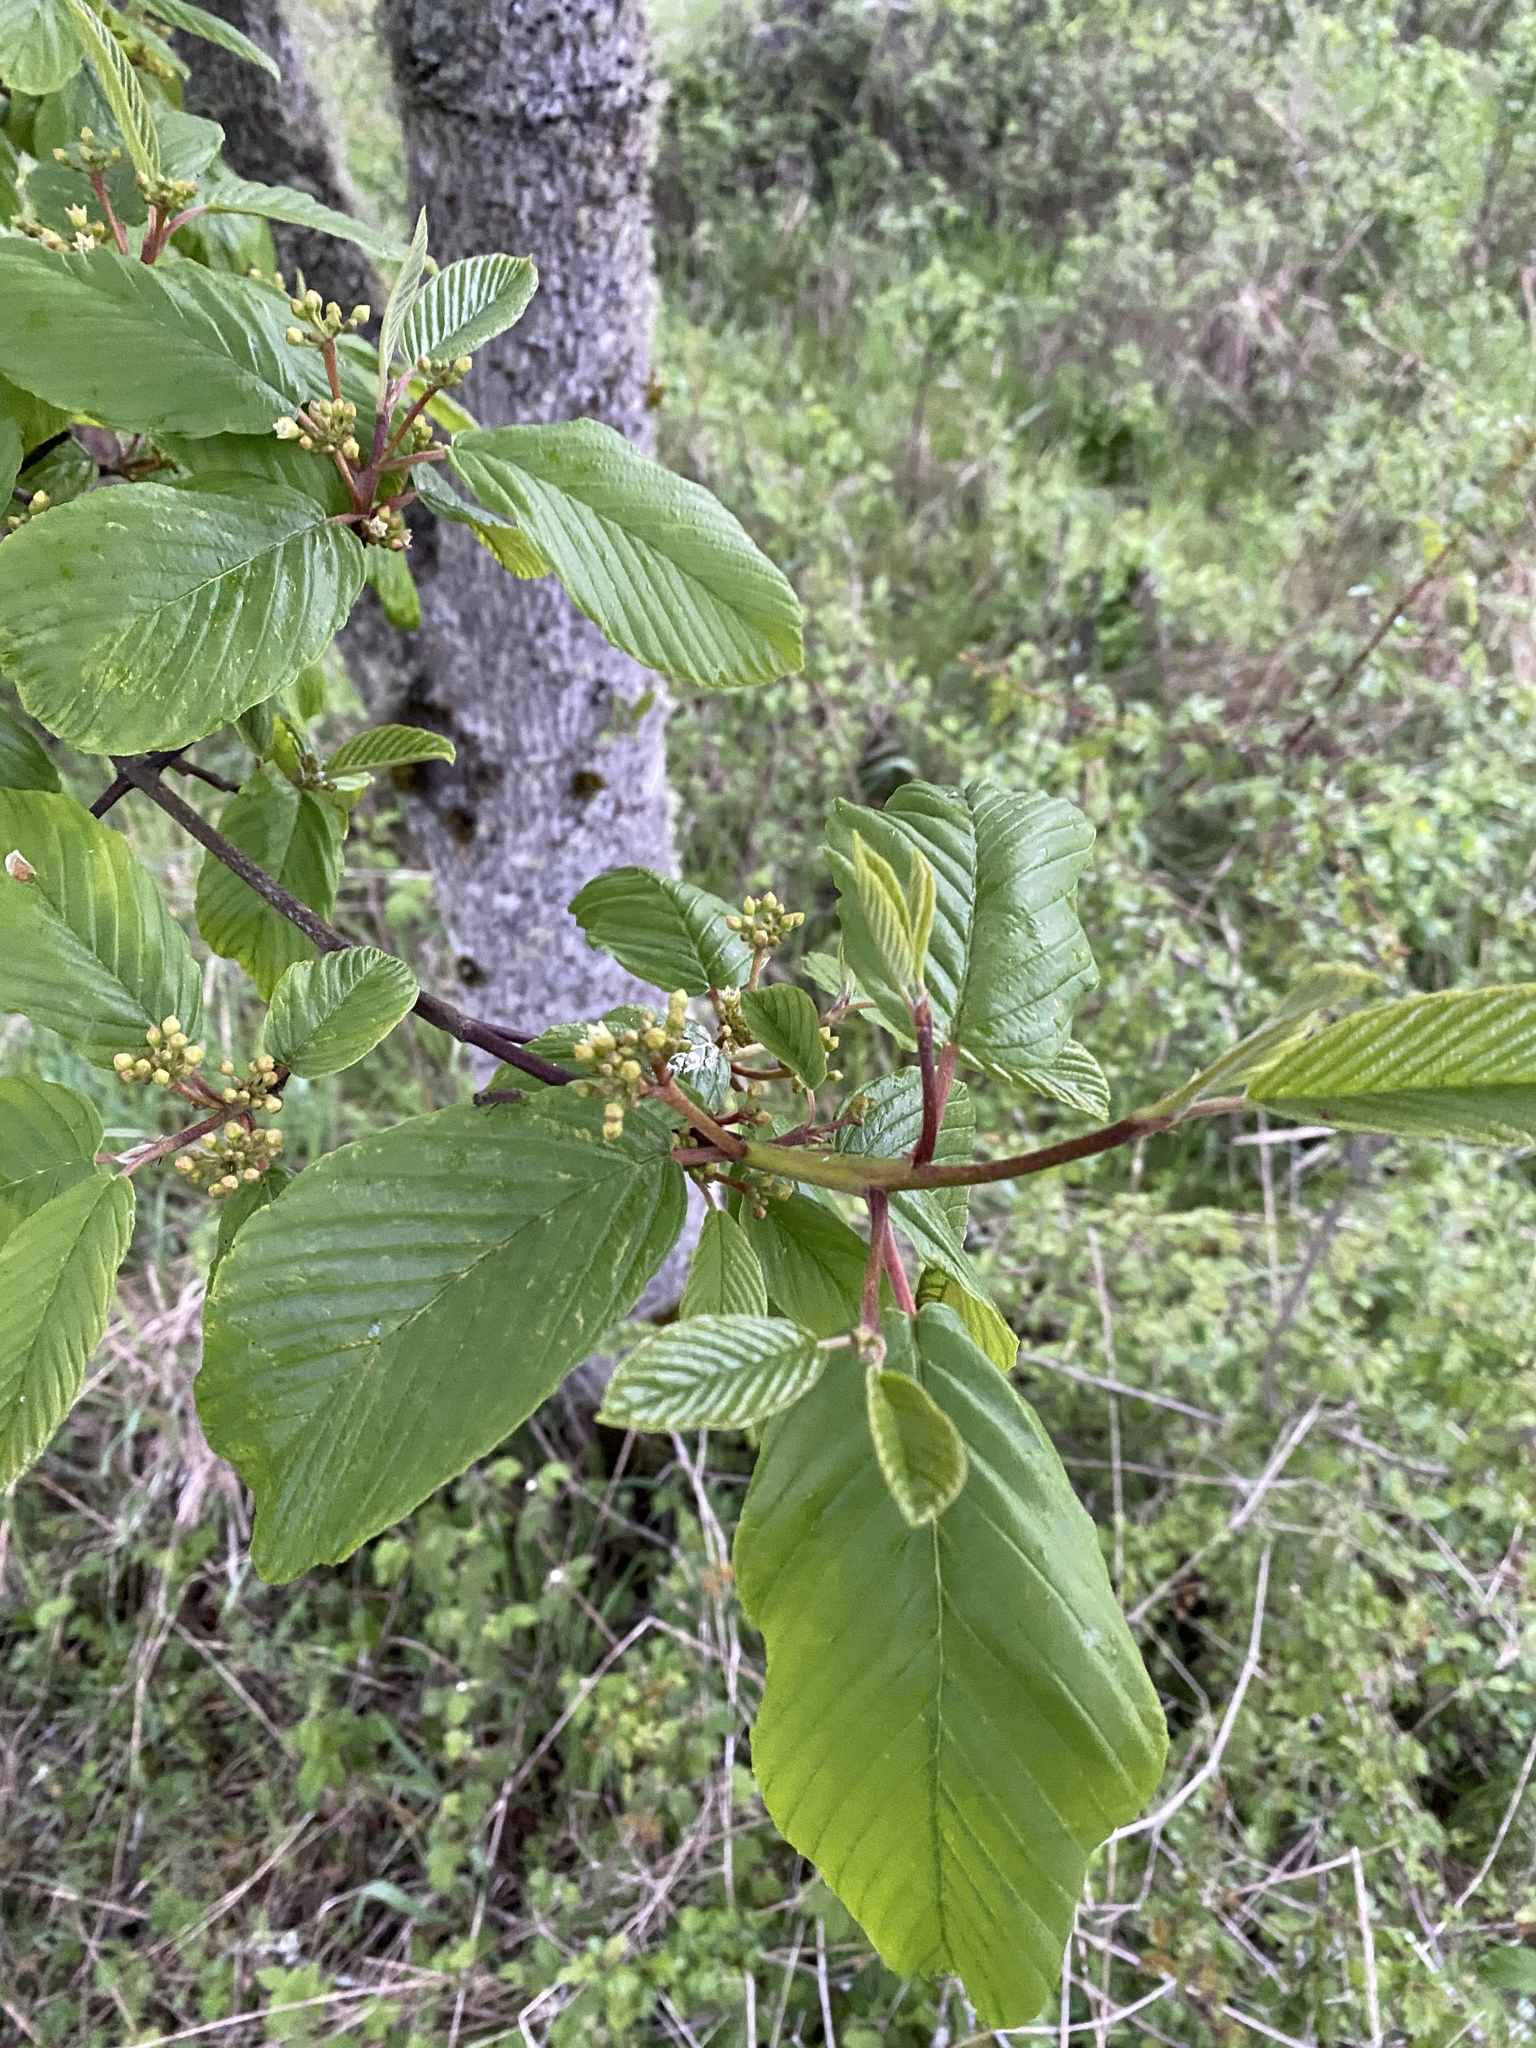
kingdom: Plantae
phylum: Tracheophyta
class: Magnoliopsida
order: Rosales
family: Rhamnaceae
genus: Frangula
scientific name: Frangula purshiana
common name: Cascara buckthorn
